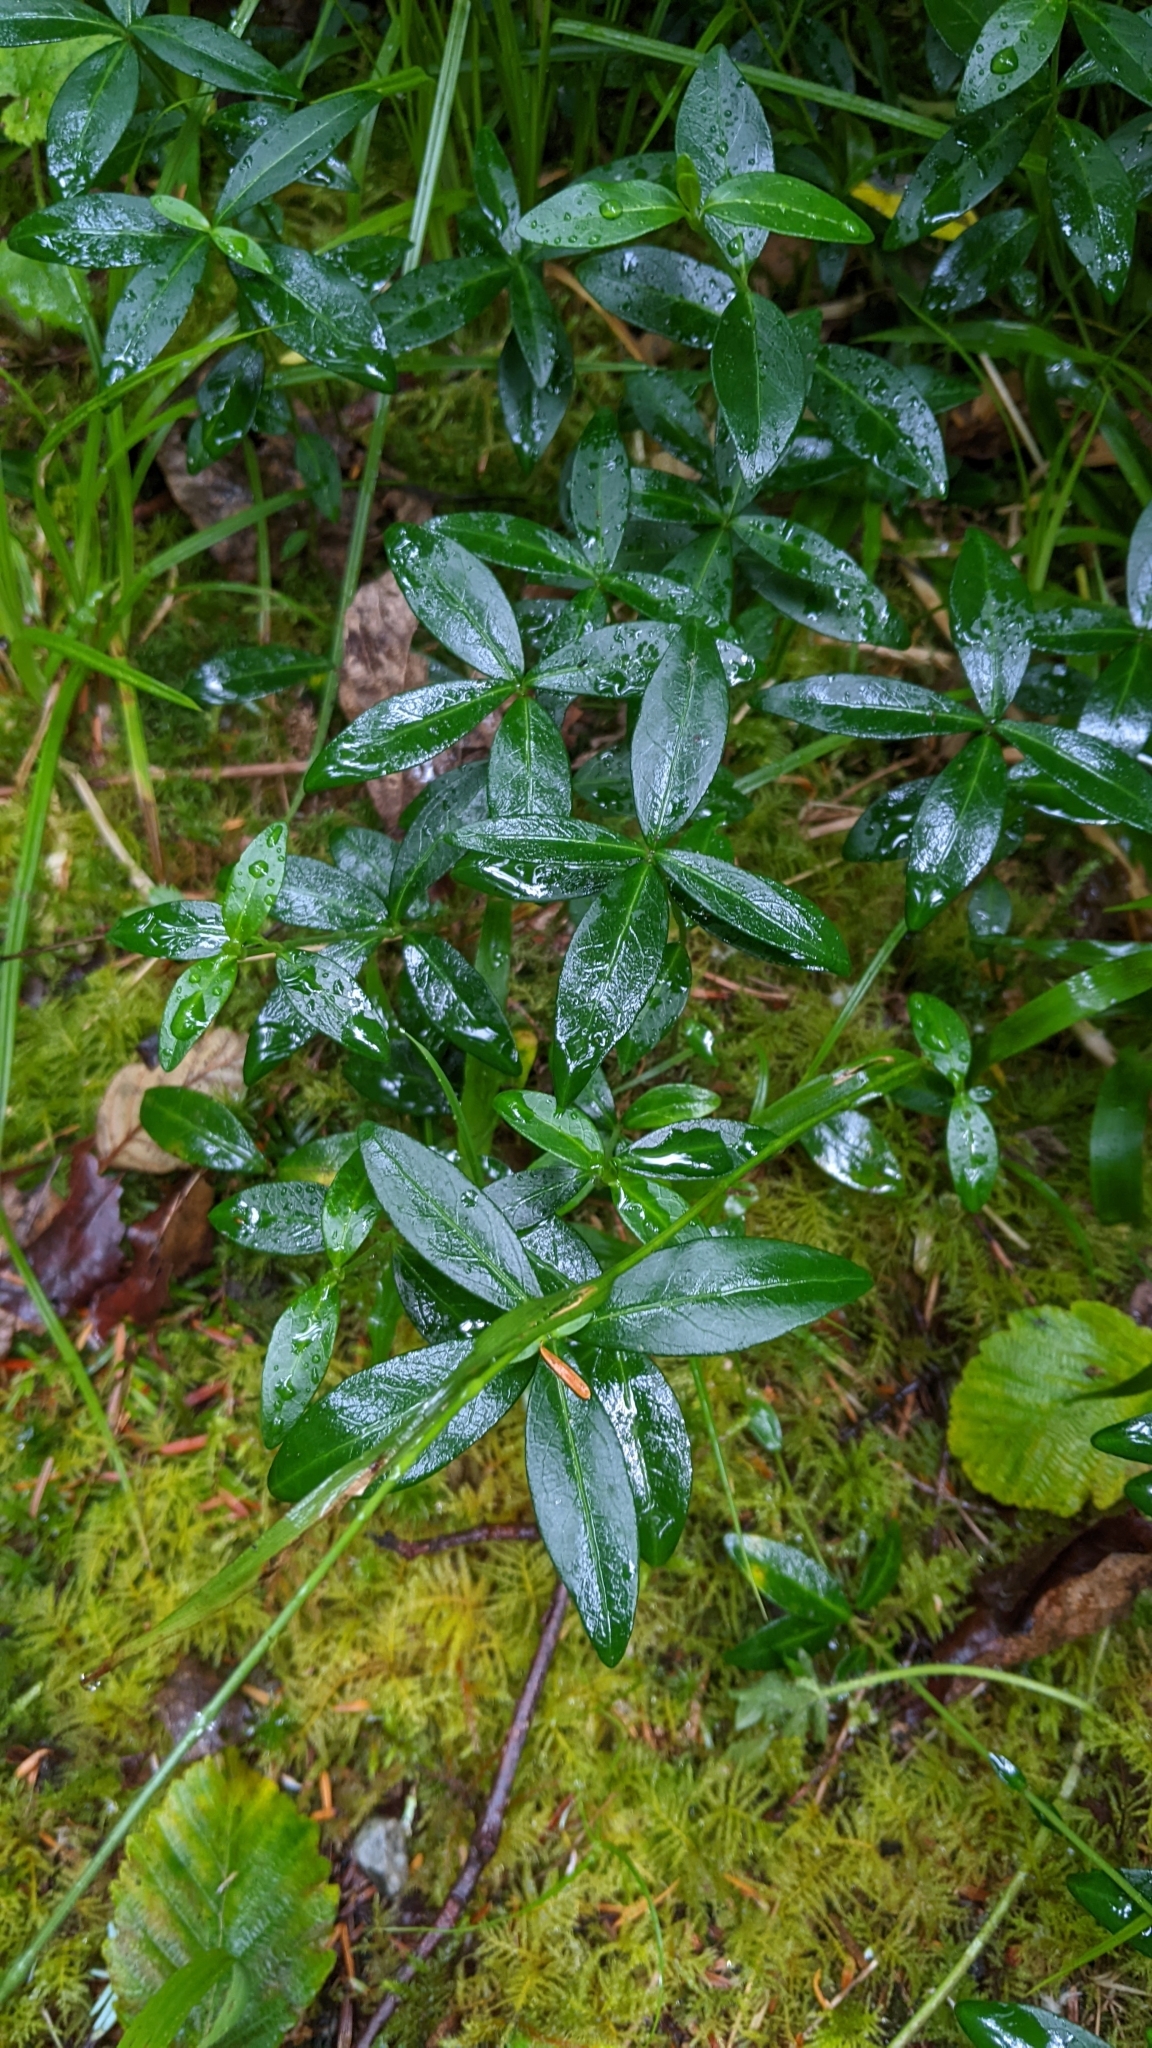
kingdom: Plantae
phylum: Tracheophyta
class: Magnoliopsida
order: Gentianales
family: Apocynaceae
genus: Vinca
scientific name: Vinca minor
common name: Lesser periwinkle
